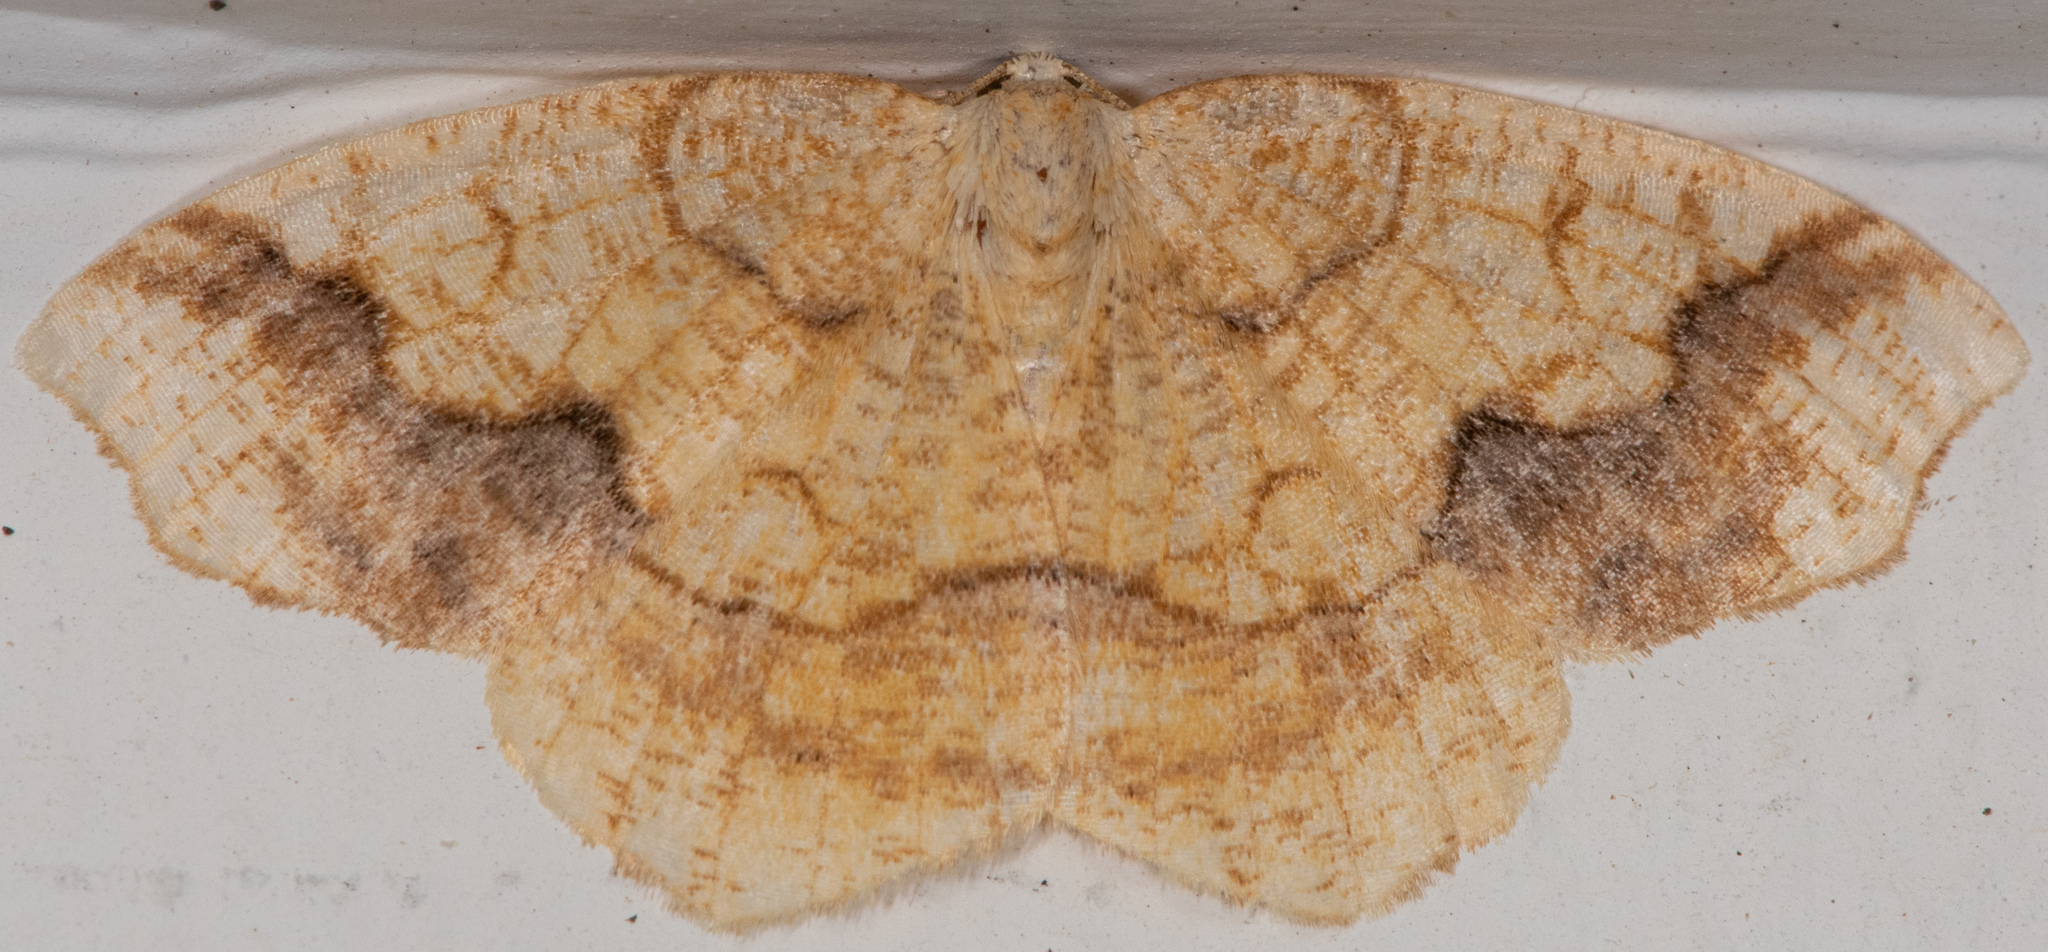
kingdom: Animalia
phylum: Arthropoda
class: Insecta
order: Lepidoptera
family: Geometridae
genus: Nematocampa
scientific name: Nematocampa brehmeata
